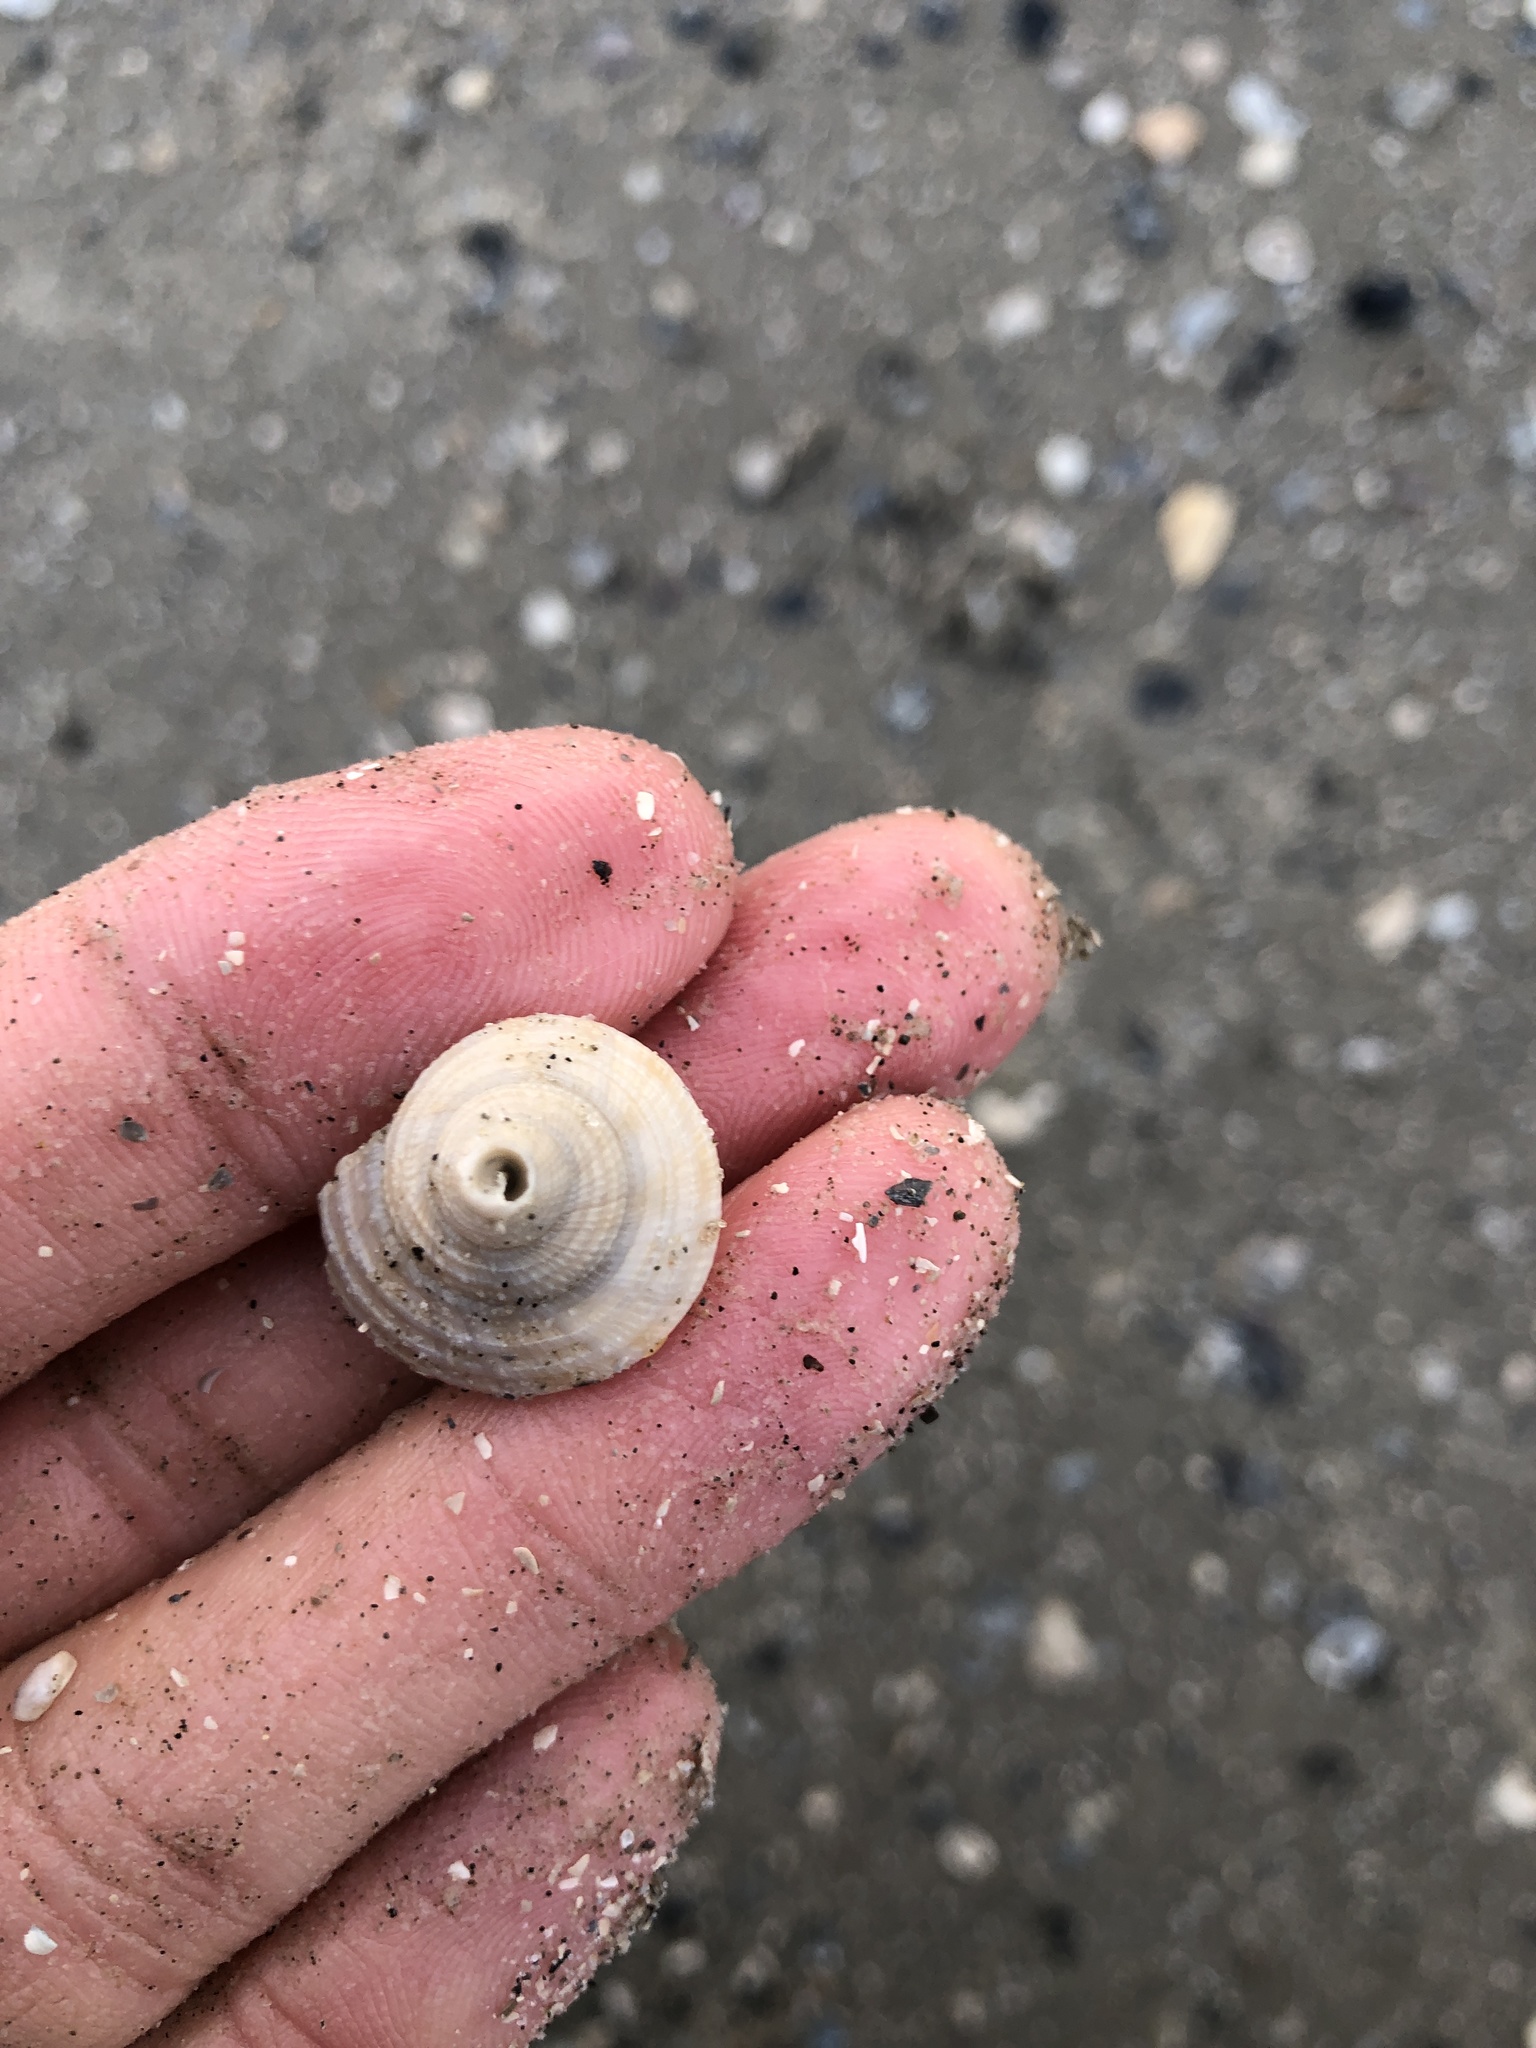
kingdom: Animalia
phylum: Mollusca
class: Gastropoda
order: Littorinimorpha
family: Cassidae
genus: Semicassis
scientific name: Semicassis granulata
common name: Scotch bonnet
